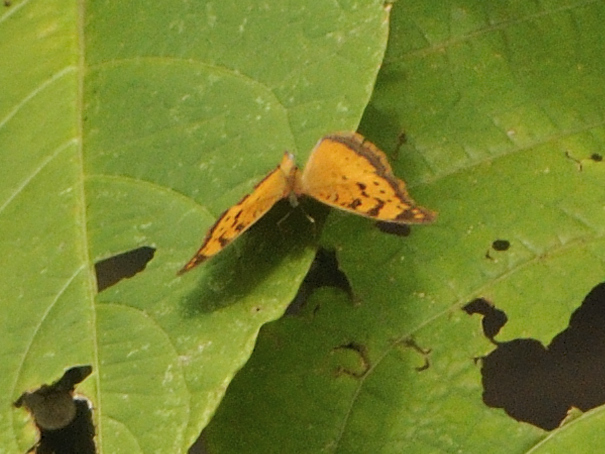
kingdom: Animalia
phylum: Arthropoda
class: Insecta
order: Lepidoptera
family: Nymphalidae
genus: Junonia
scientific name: Junonia antilope
